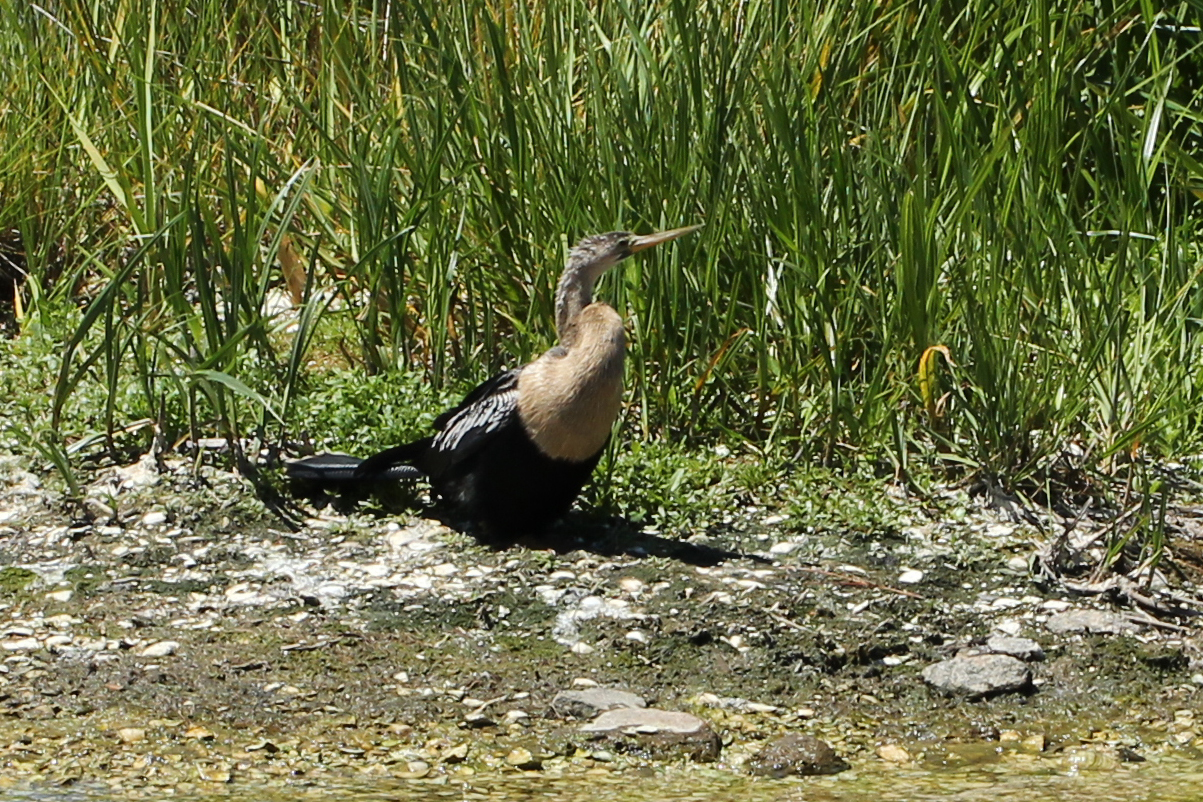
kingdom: Animalia
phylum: Chordata
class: Aves
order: Suliformes
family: Anhingidae
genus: Anhinga
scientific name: Anhinga anhinga
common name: Anhinga
